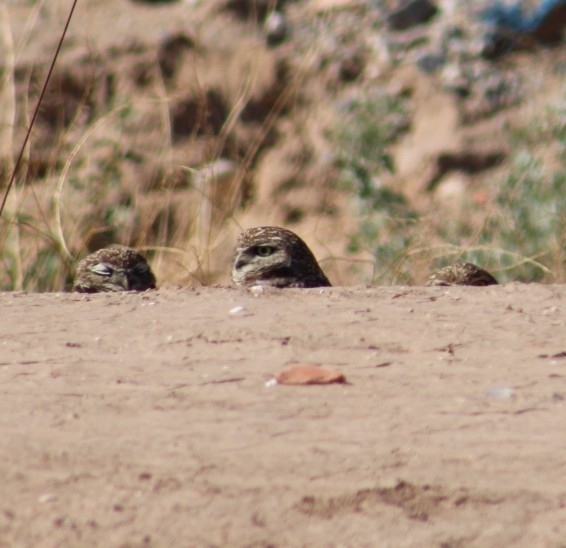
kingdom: Animalia
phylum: Chordata
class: Aves
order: Strigiformes
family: Strigidae
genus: Athene
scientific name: Athene cunicularia
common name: Burrowing owl
